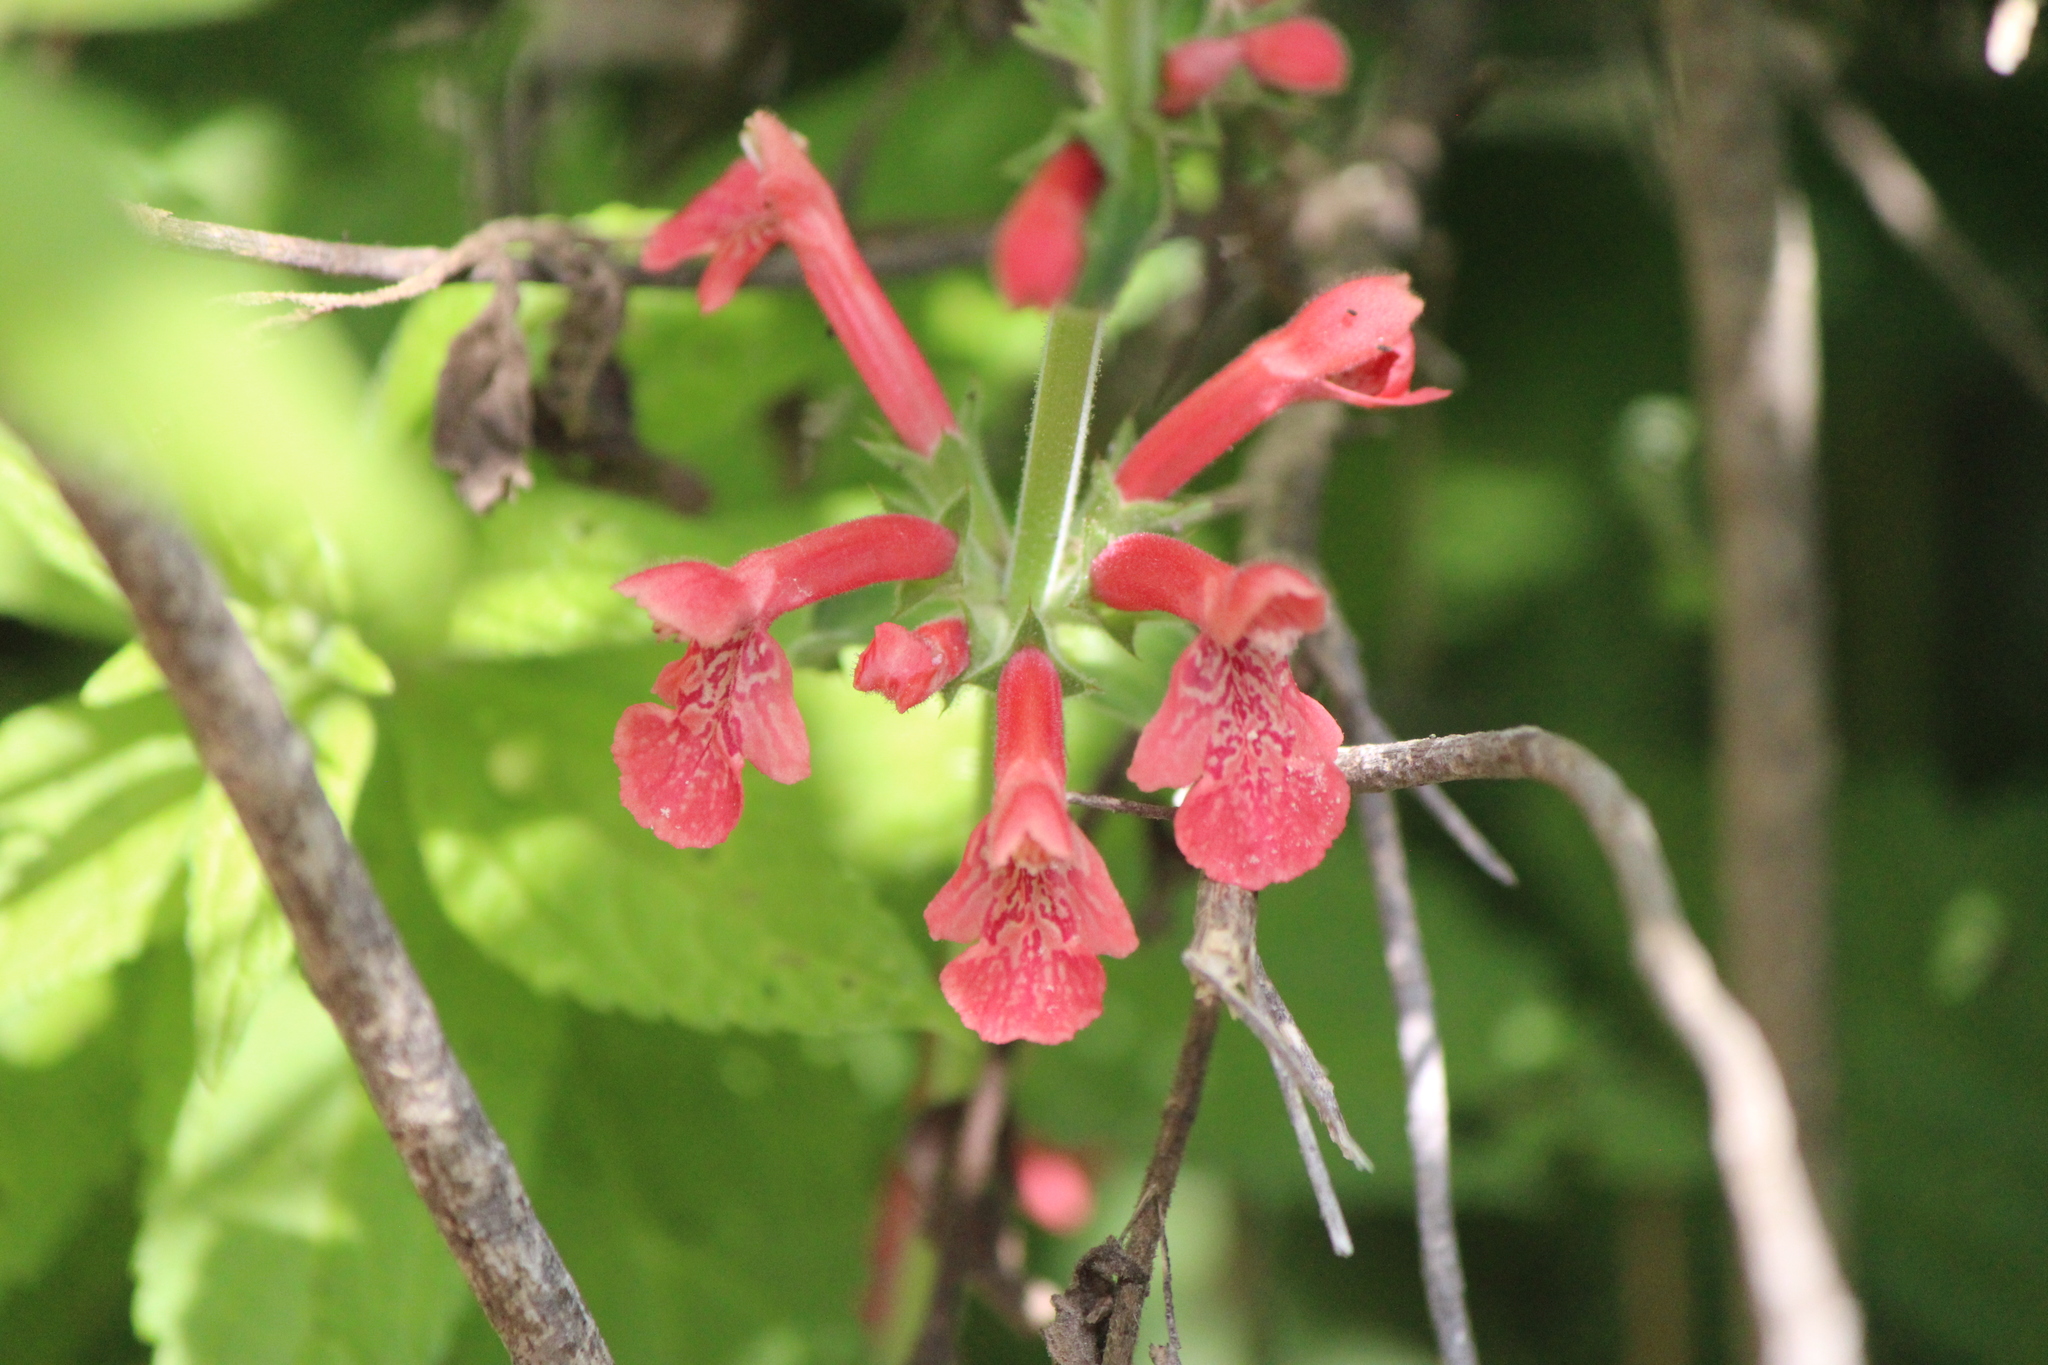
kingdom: Plantae
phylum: Tracheophyta
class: Magnoliopsida
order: Lamiales
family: Lamiaceae
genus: Stachys
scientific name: Stachys coccinea
